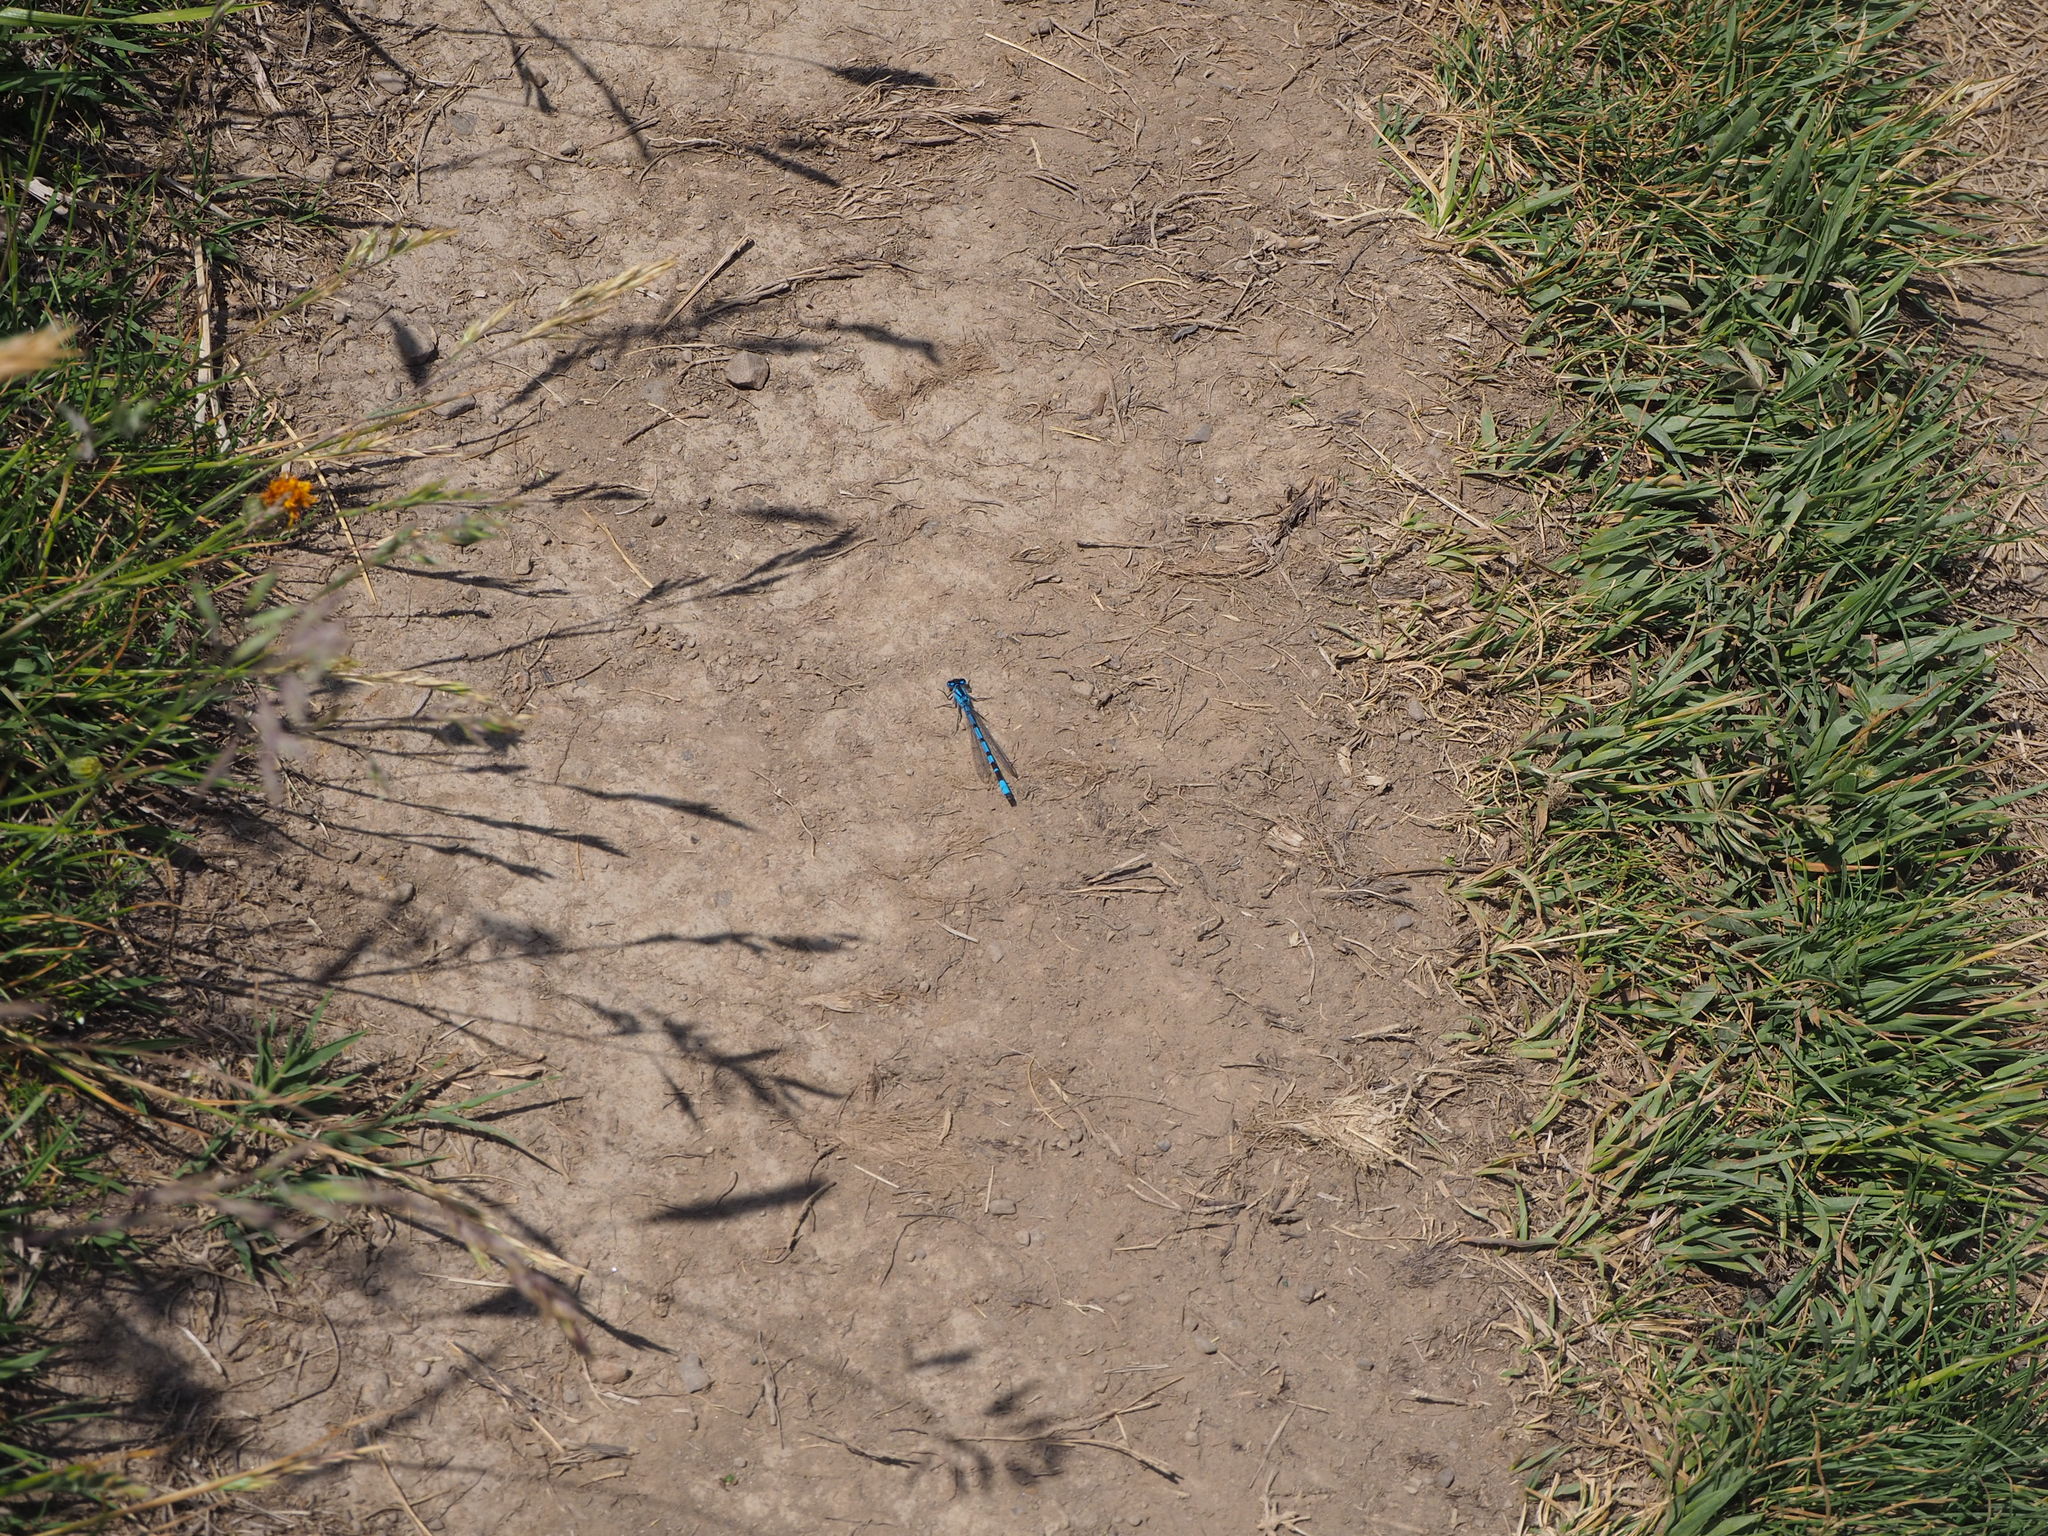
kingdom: Animalia
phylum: Arthropoda
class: Insecta
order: Odonata
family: Coenagrionidae
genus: Enallagma
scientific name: Enallagma cyathigerum
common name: Common blue damselfly
